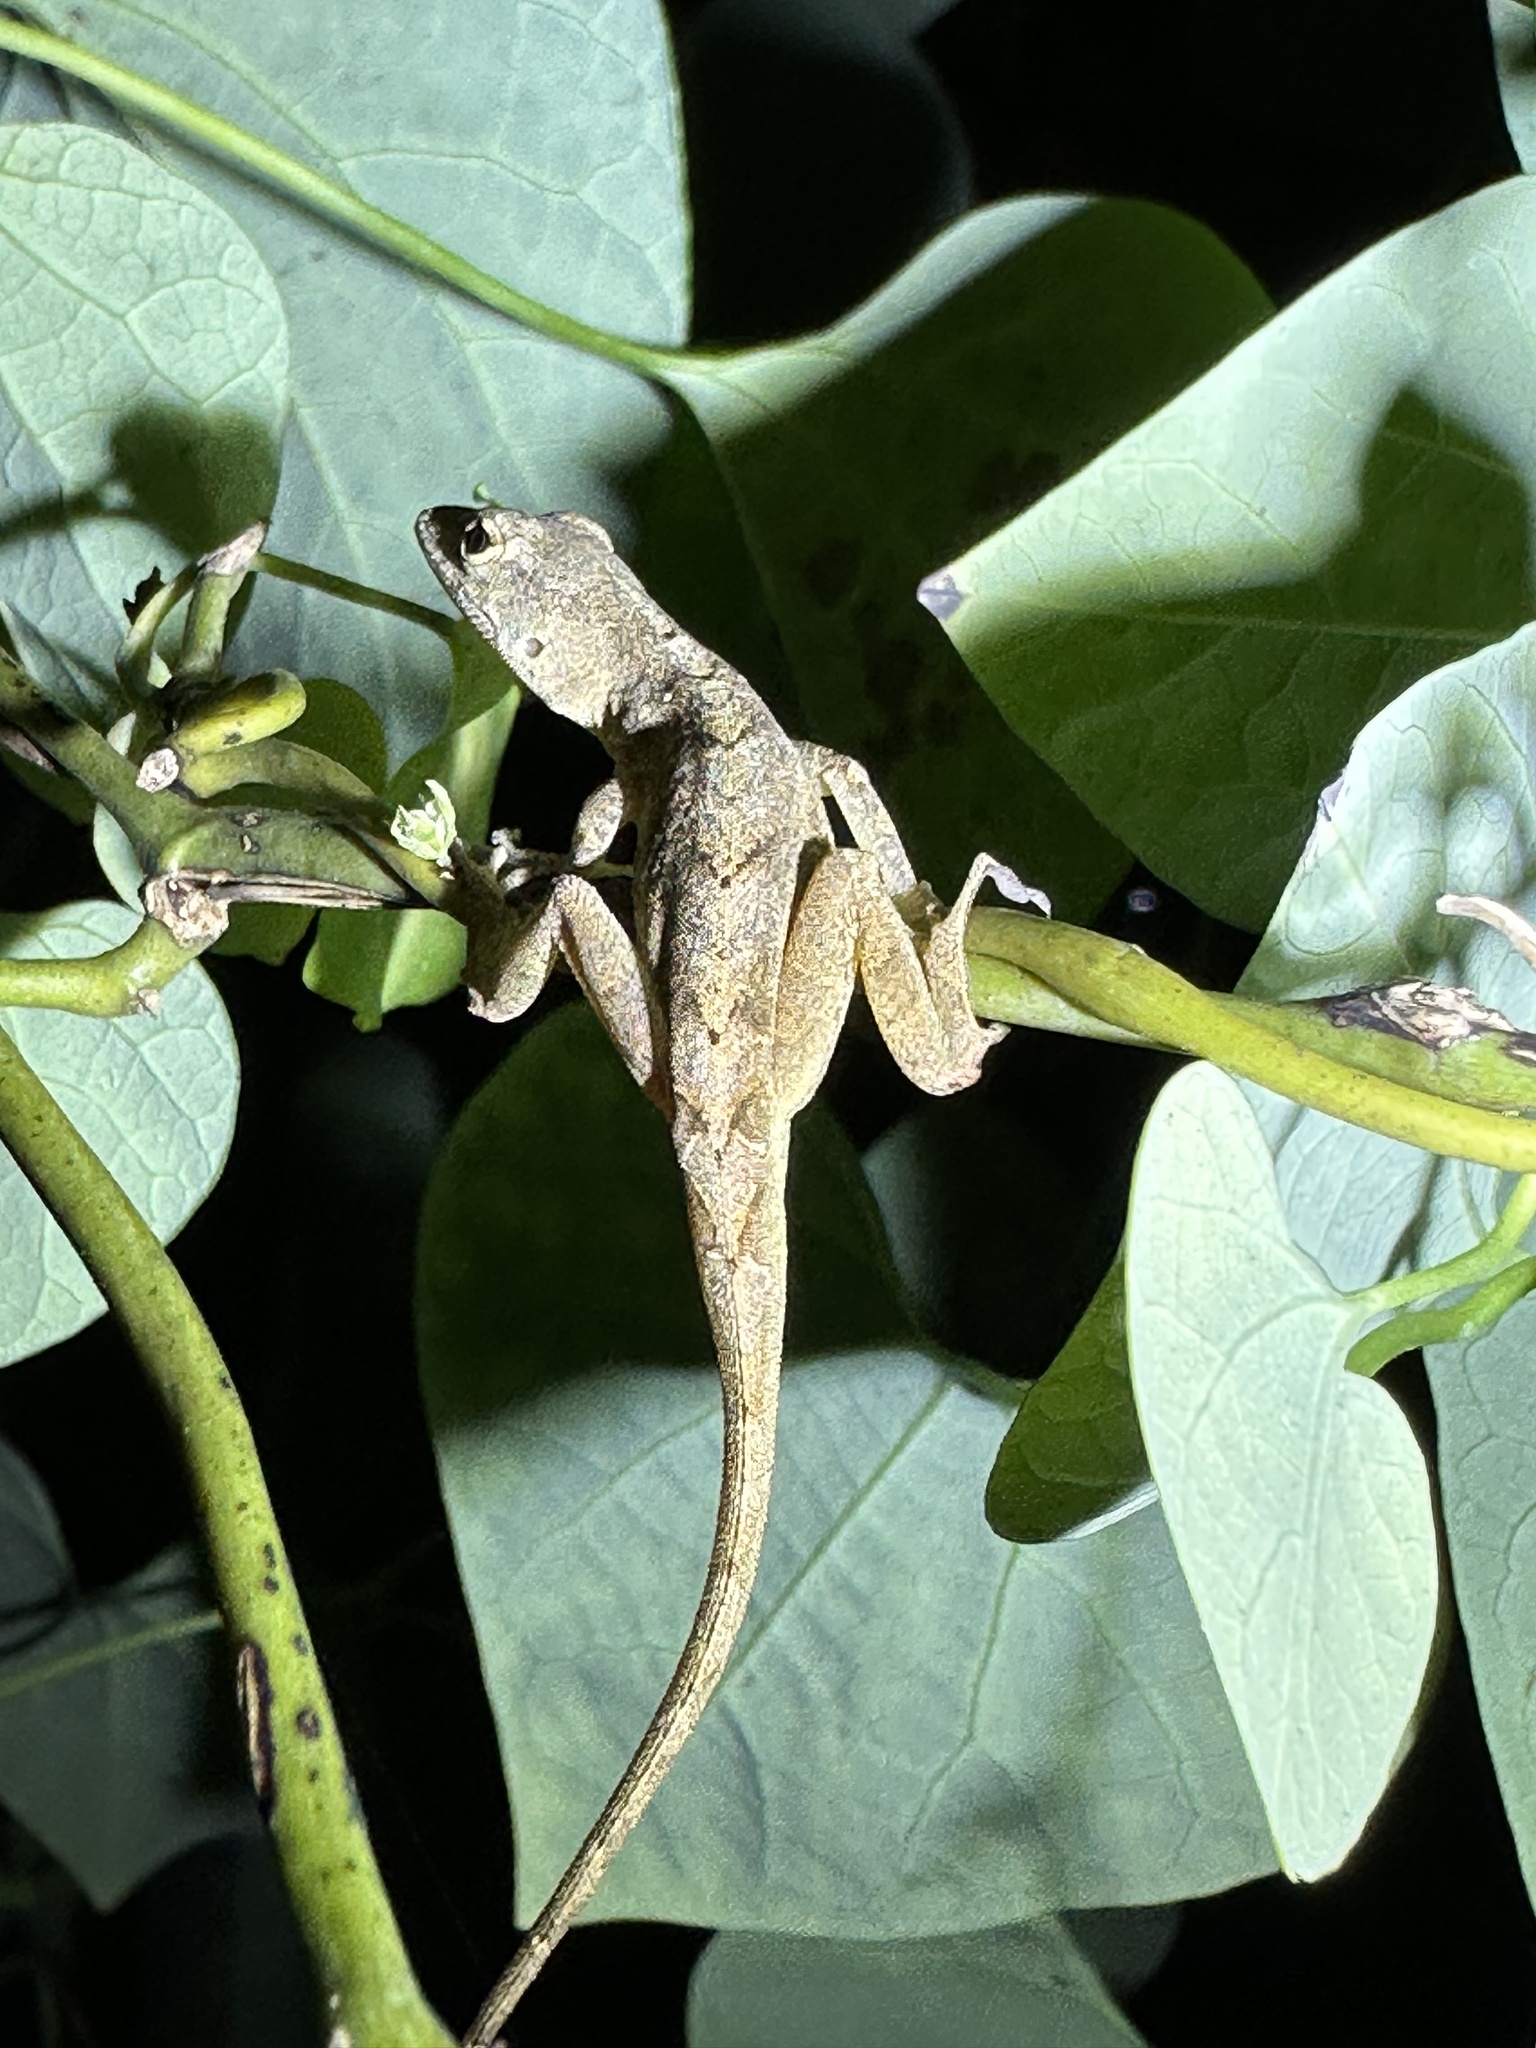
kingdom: Animalia
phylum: Chordata
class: Squamata
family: Dactyloidae
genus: Anolis
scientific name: Anolis sagrei
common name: Brown anole
